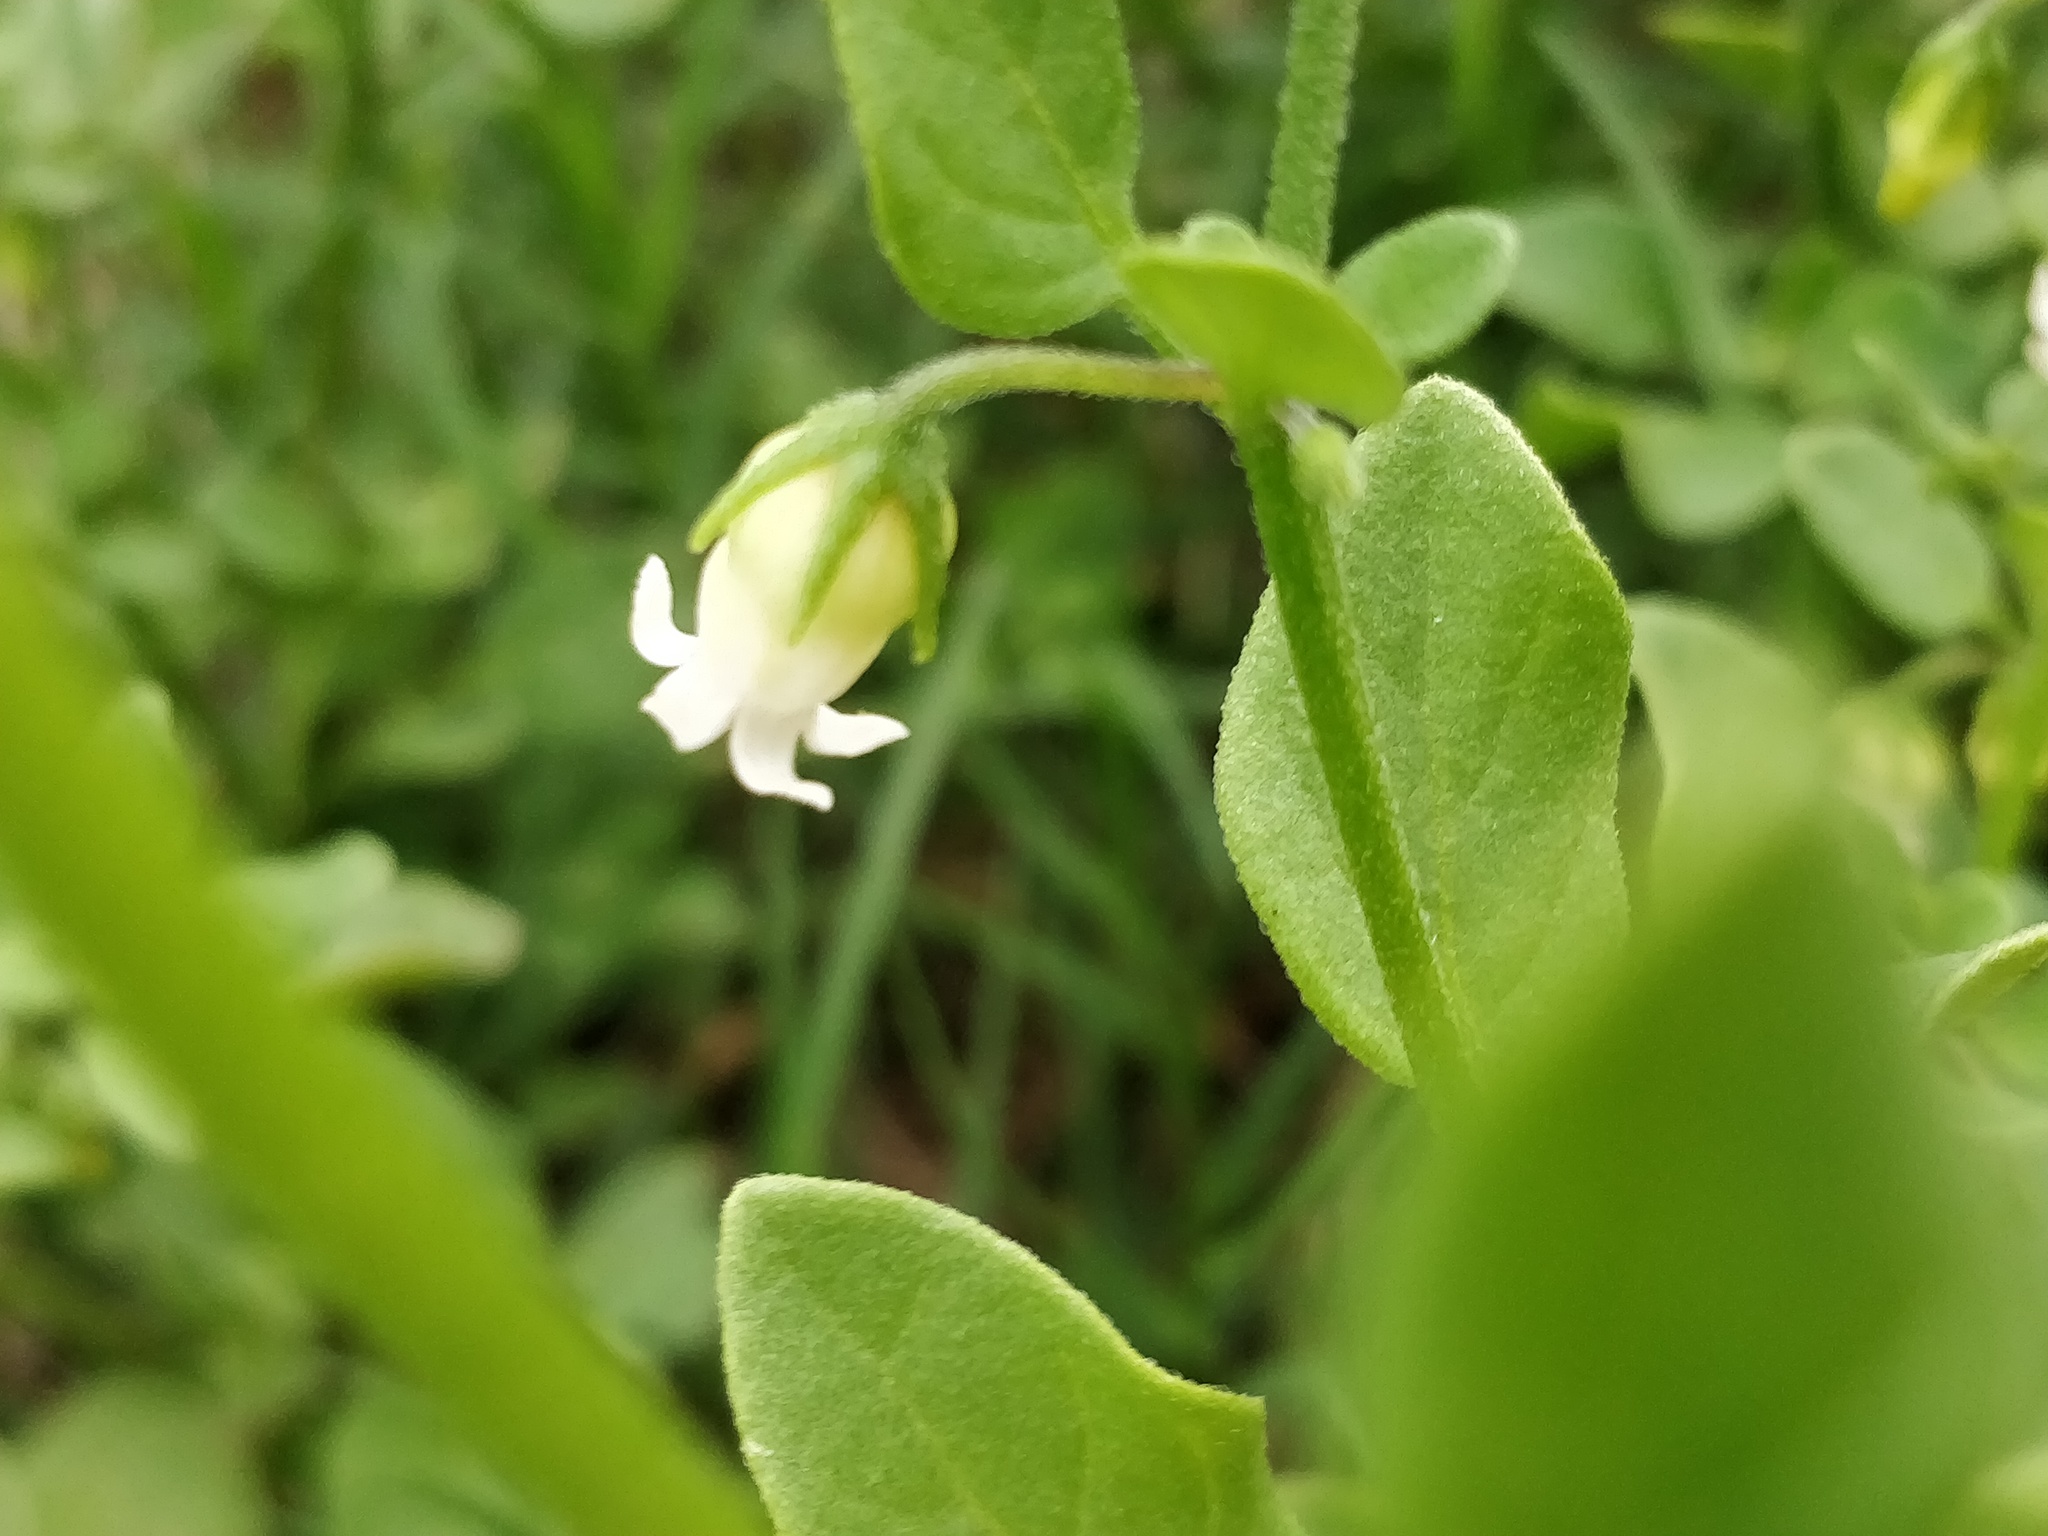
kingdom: Plantae
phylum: Tracheophyta
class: Magnoliopsida
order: Solanales
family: Solanaceae
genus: Salpichroa
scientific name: Salpichroa origanifolia
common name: Lily-of-the-valley-vine
